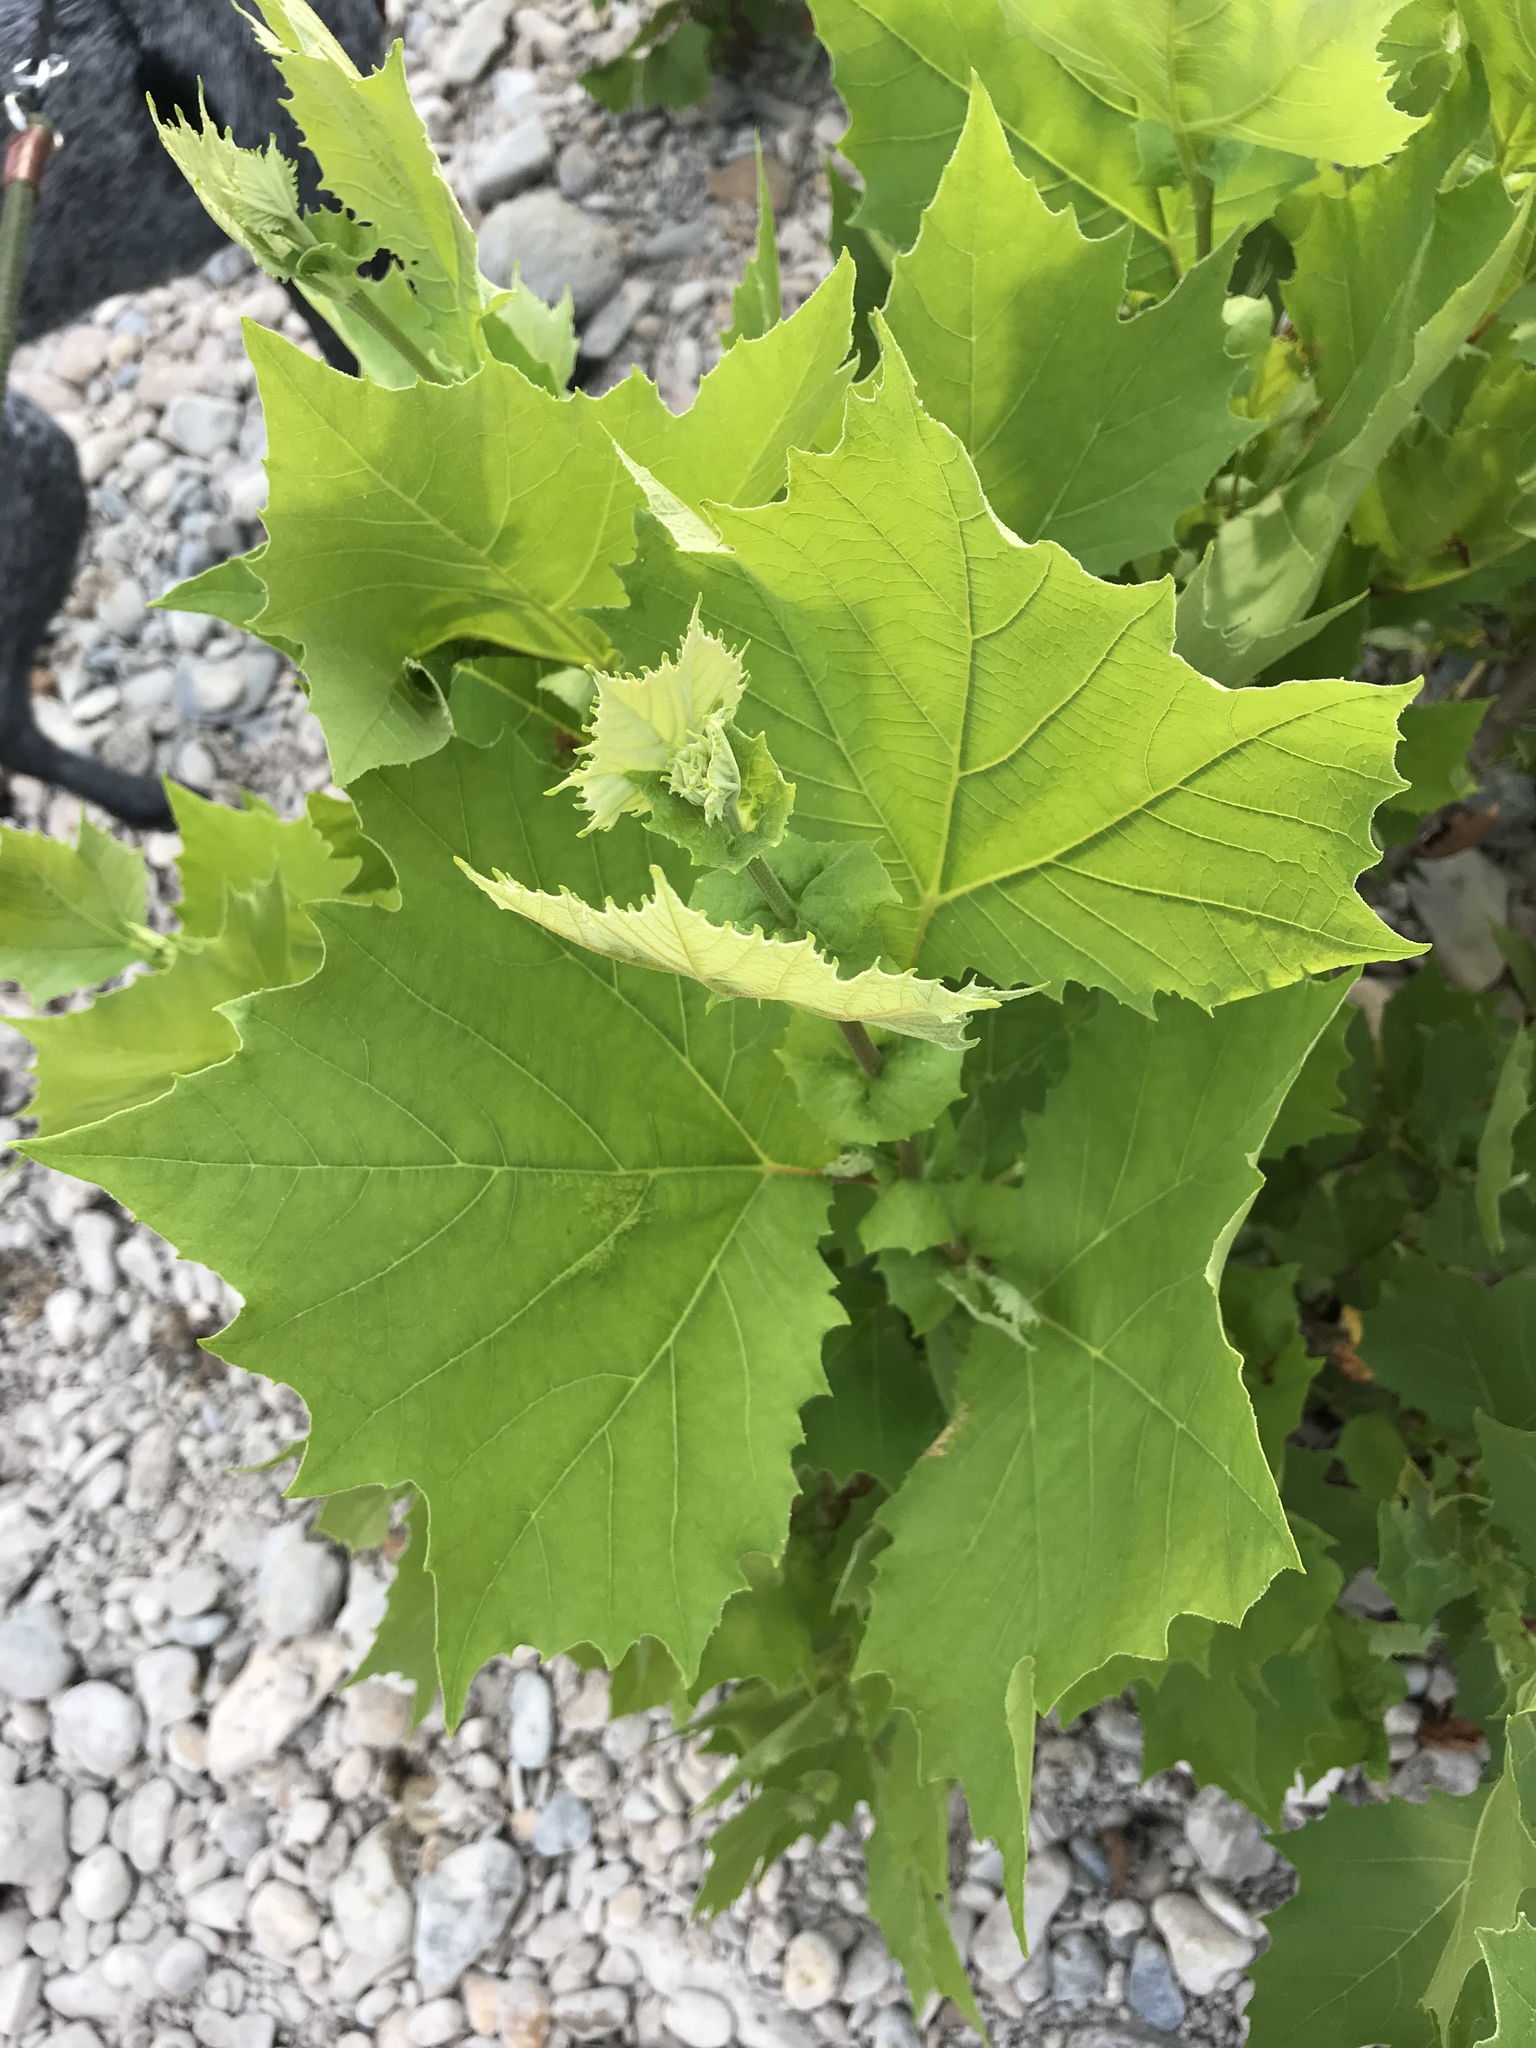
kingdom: Plantae
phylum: Tracheophyta
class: Magnoliopsida
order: Proteales
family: Platanaceae
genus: Platanus
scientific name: Platanus occidentalis
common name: American sycamore
